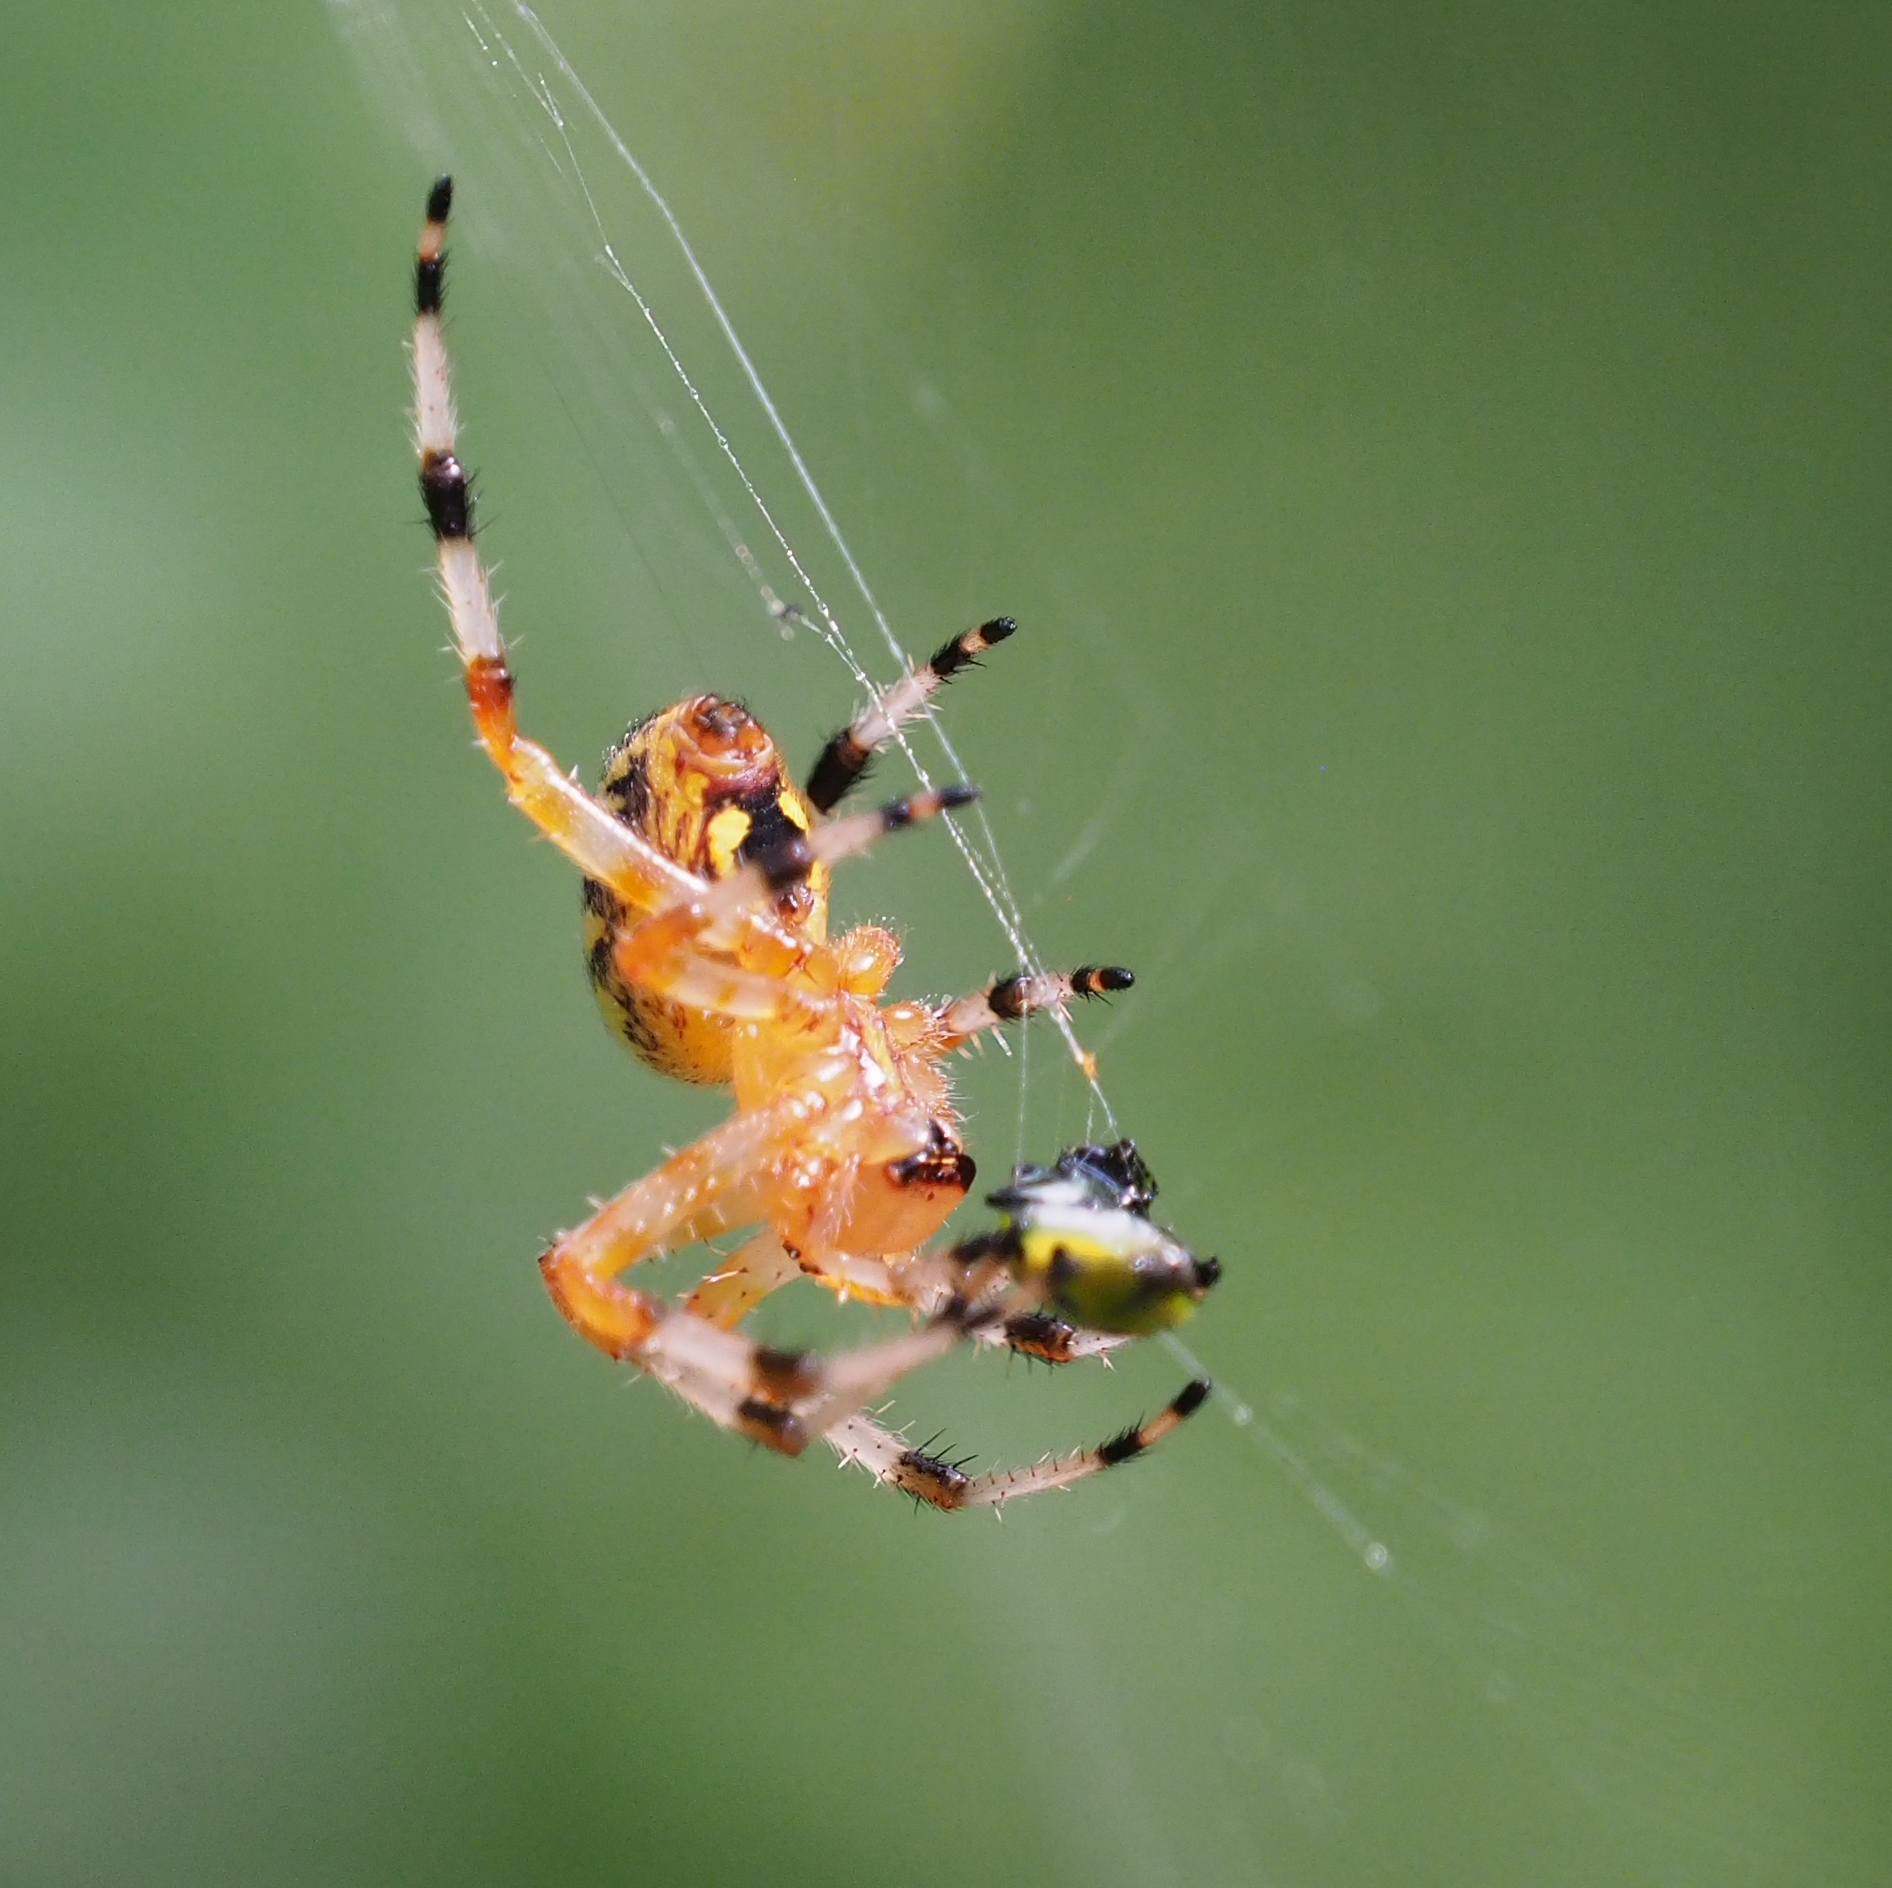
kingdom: Animalia
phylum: Arthropoda
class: Arachnida
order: Araneae
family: Araneidae
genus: Araneus
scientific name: Araneus marmoreus
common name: Marbled orbweaver
